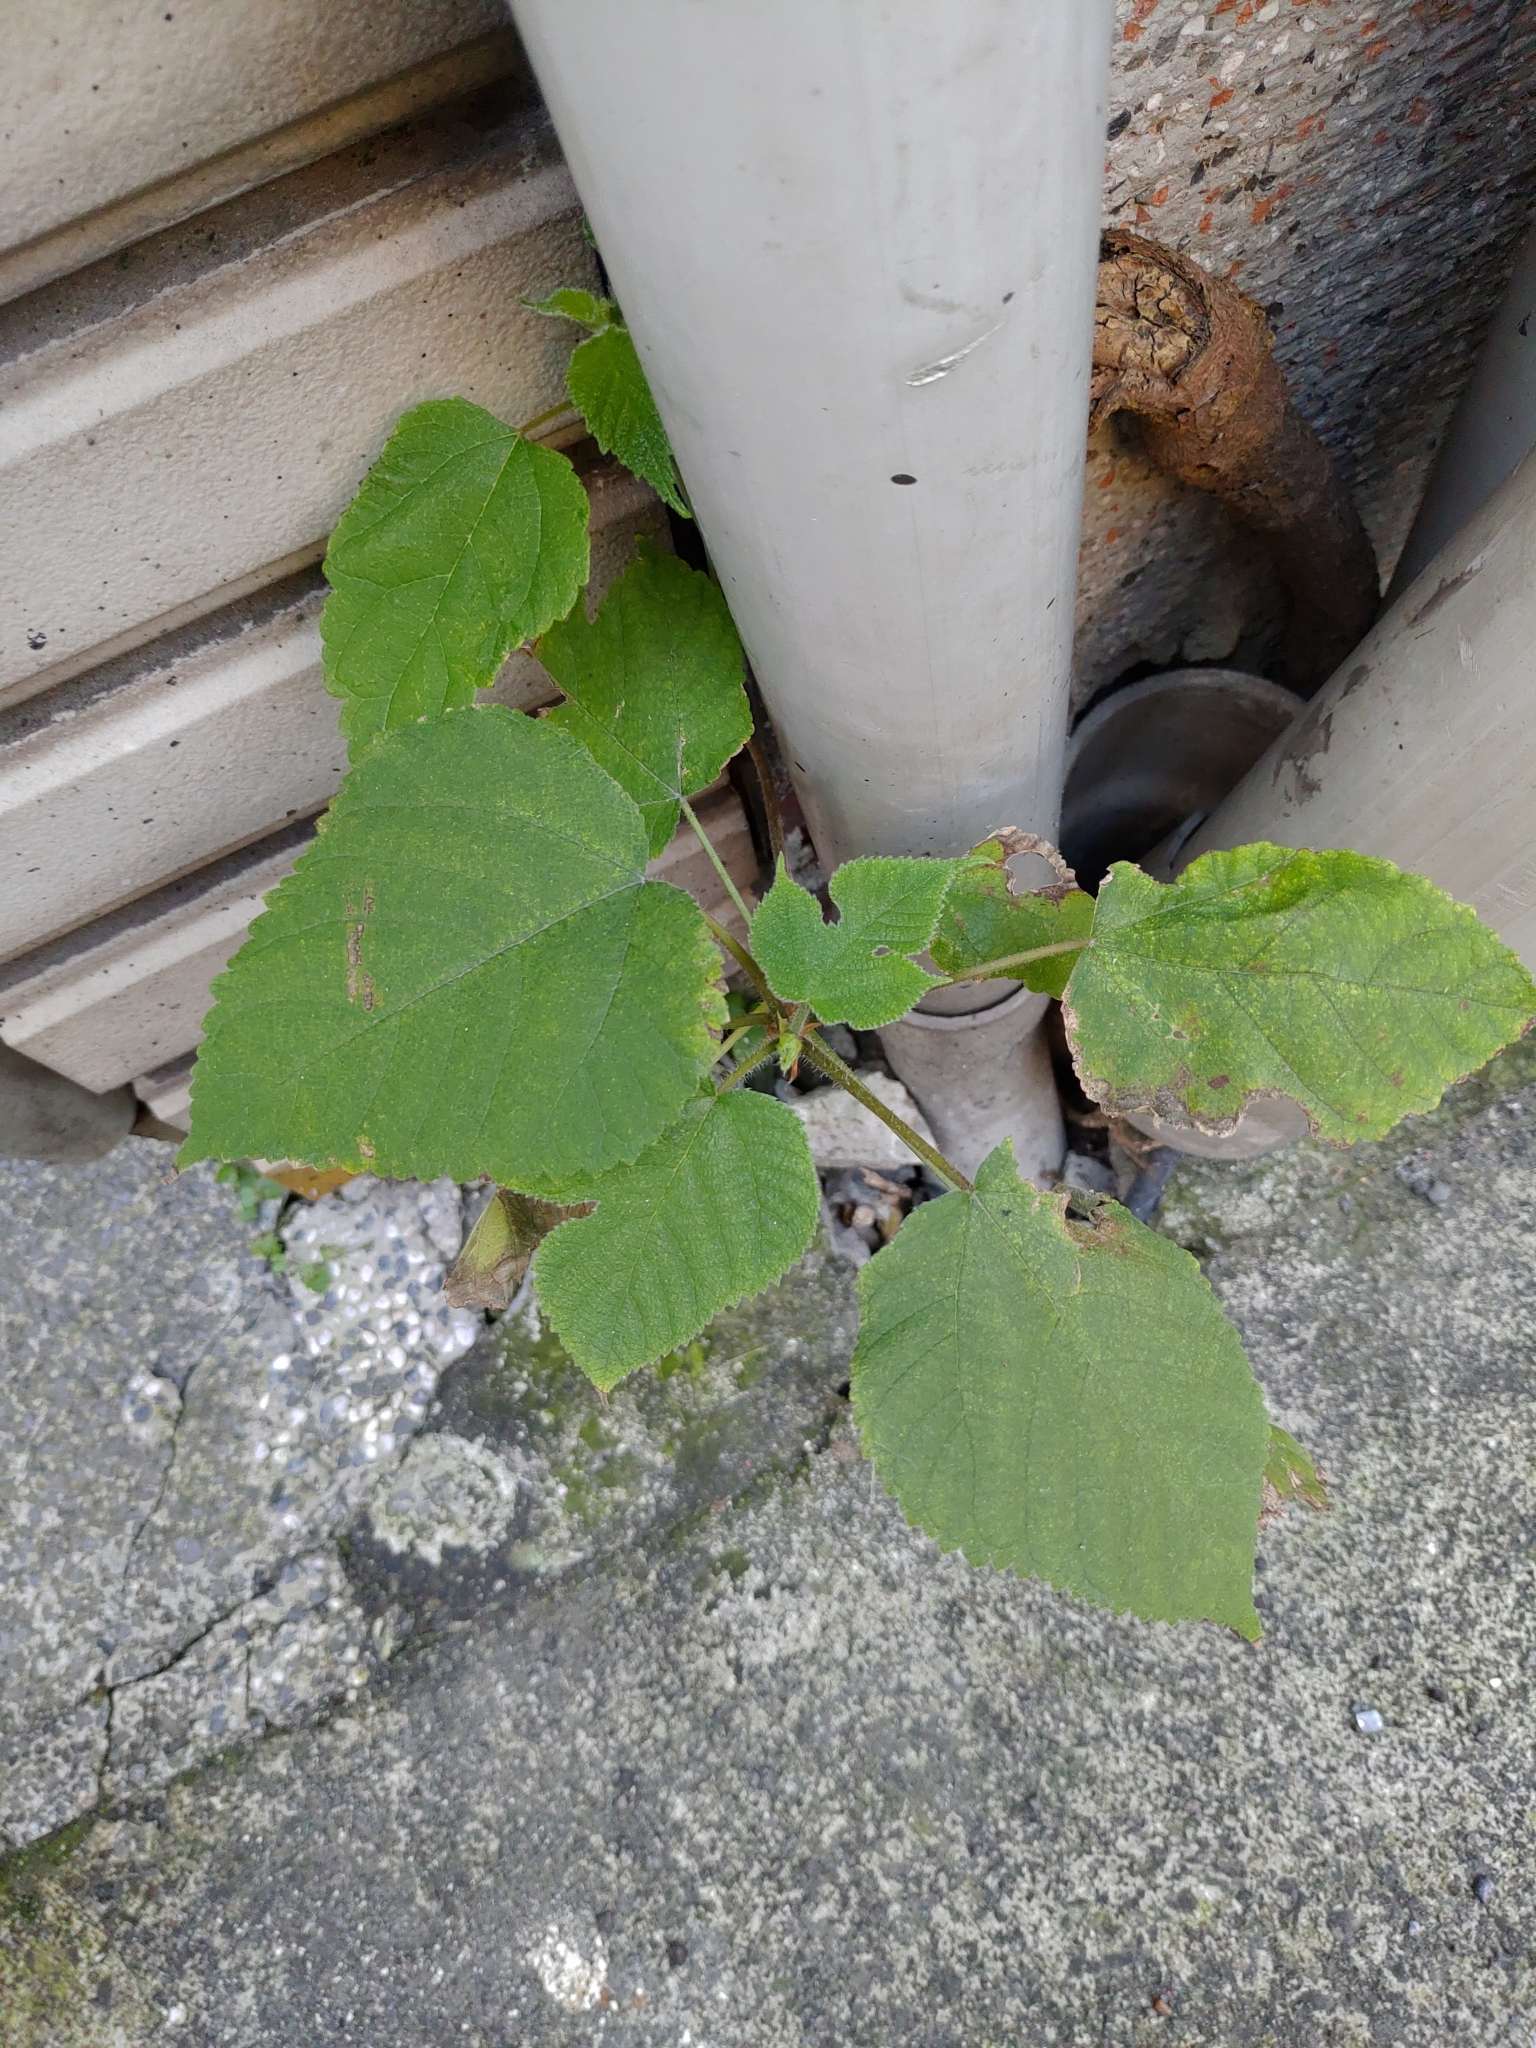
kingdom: Plantae
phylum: Tracheophyta
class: Magnoliopsida
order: Rosales
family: Moraceae
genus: Broussonetia
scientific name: Broussonetia papyrifera
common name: Paper mulberry
